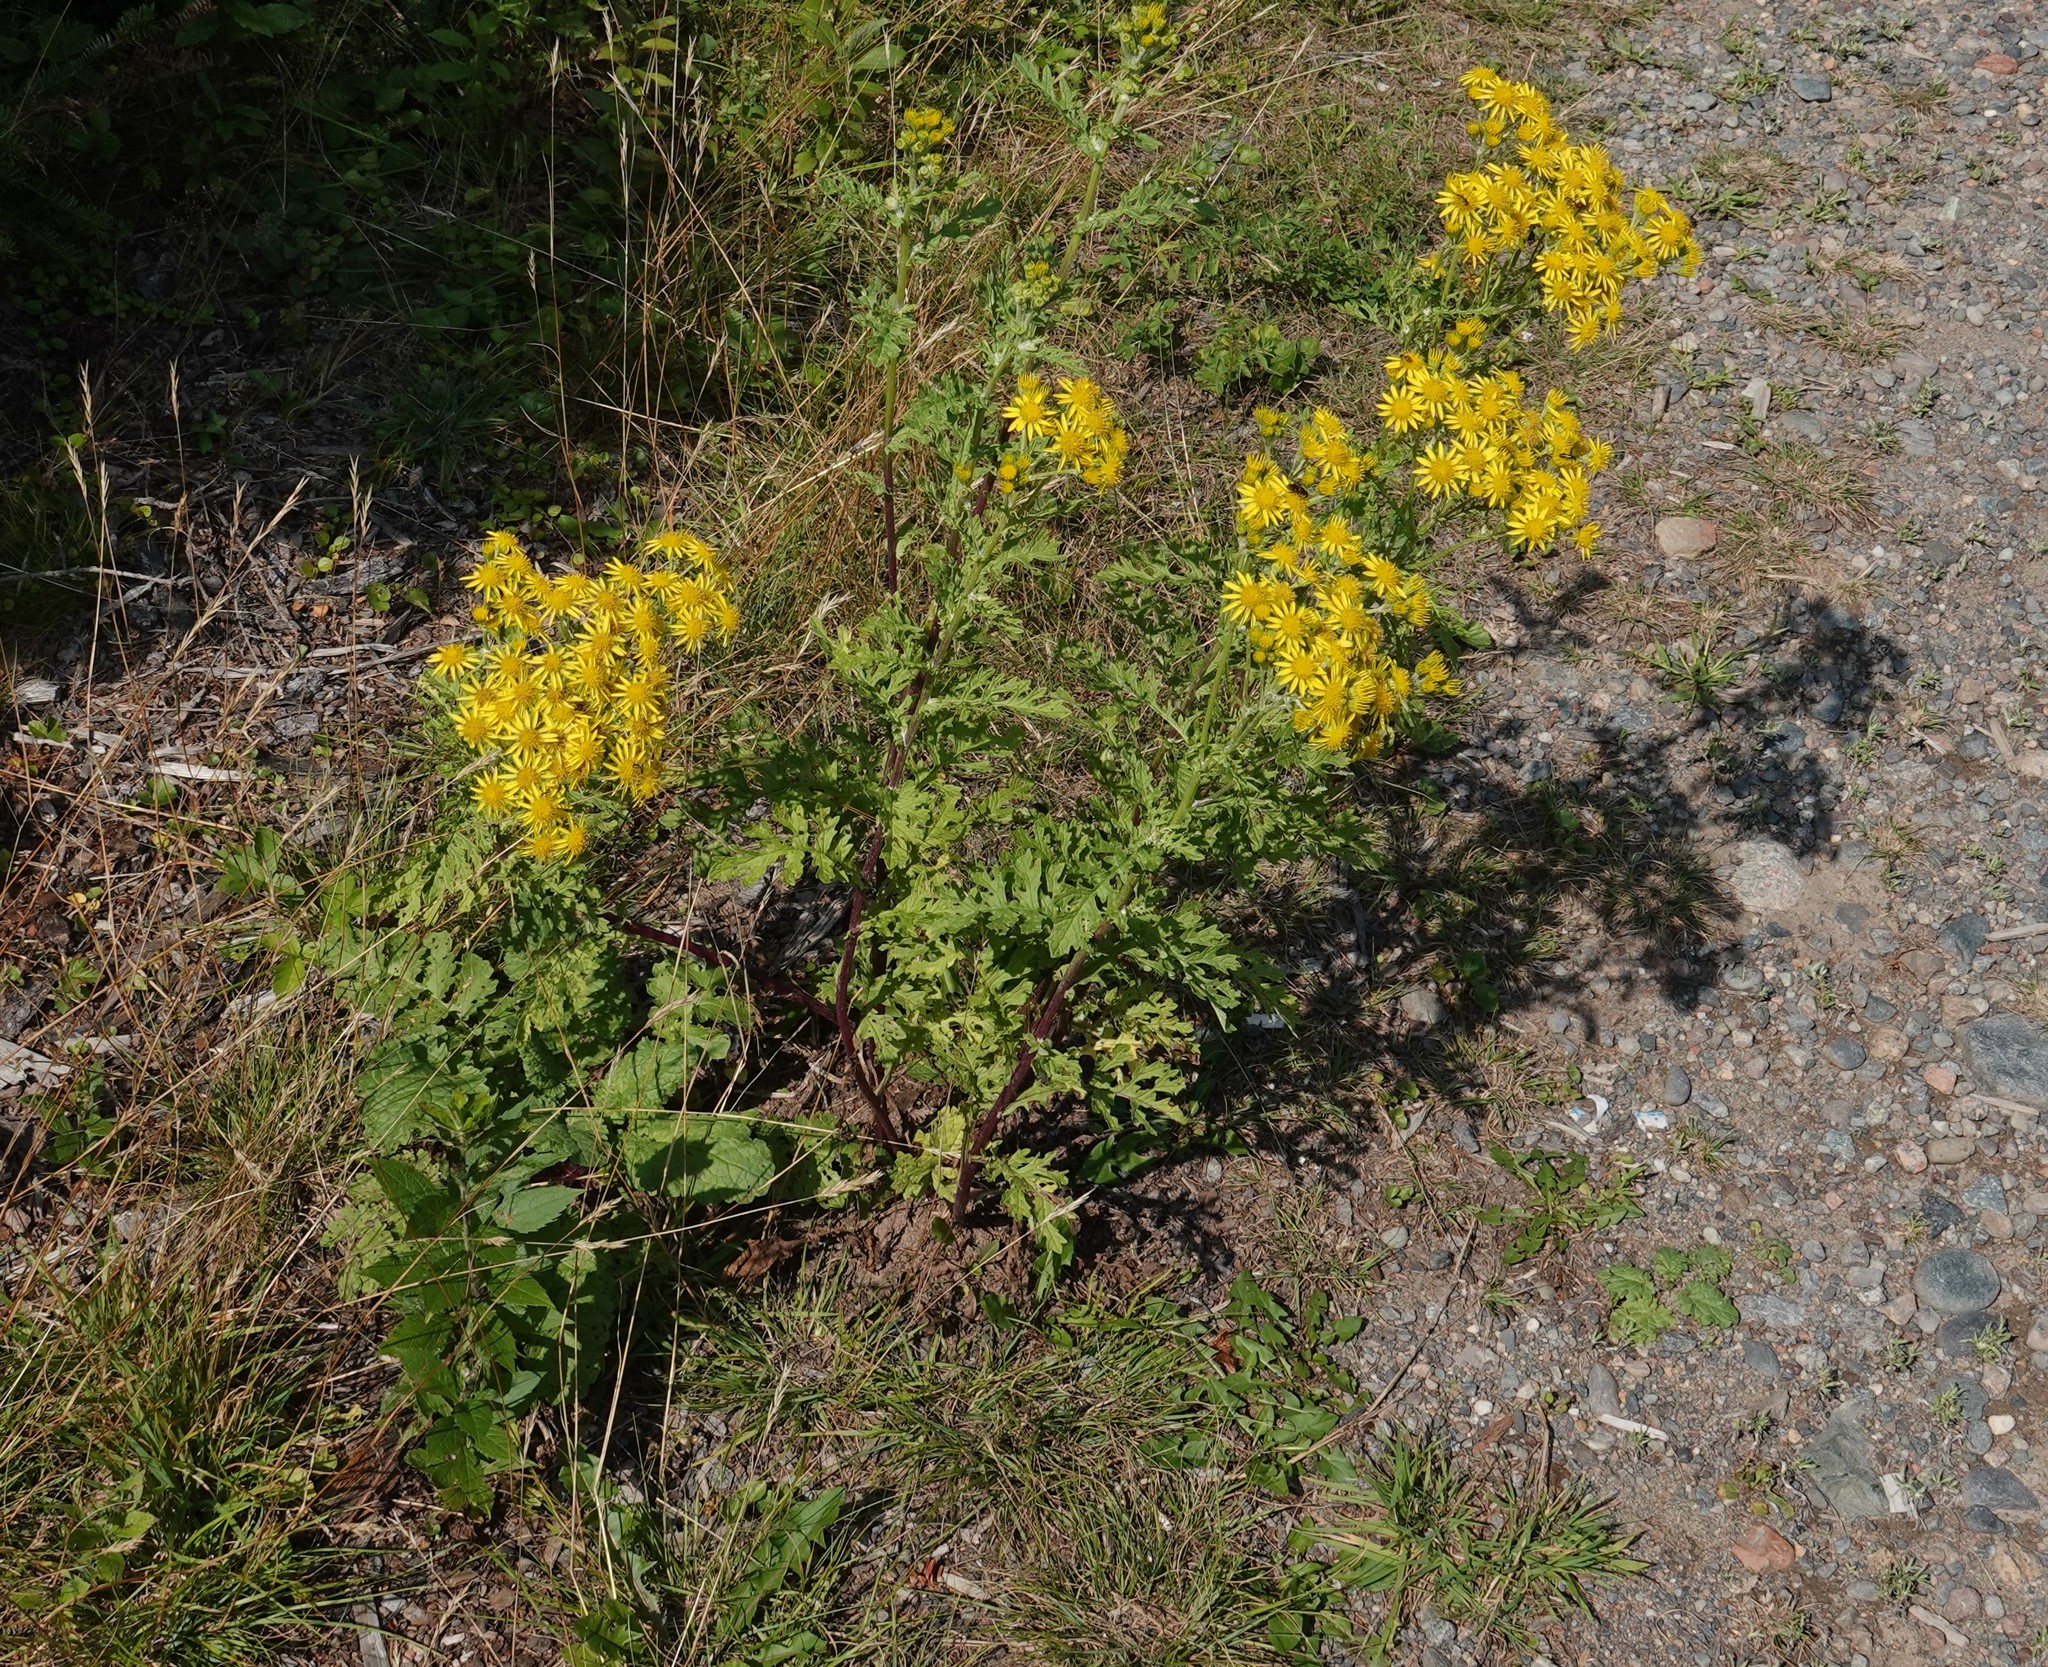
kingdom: Plantae
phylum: Tracheophyta
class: Magnoliopsida
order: Asterales
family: Asteraceae
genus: Jacobaea
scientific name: Jacobaea vulgaris
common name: Stinking willie
